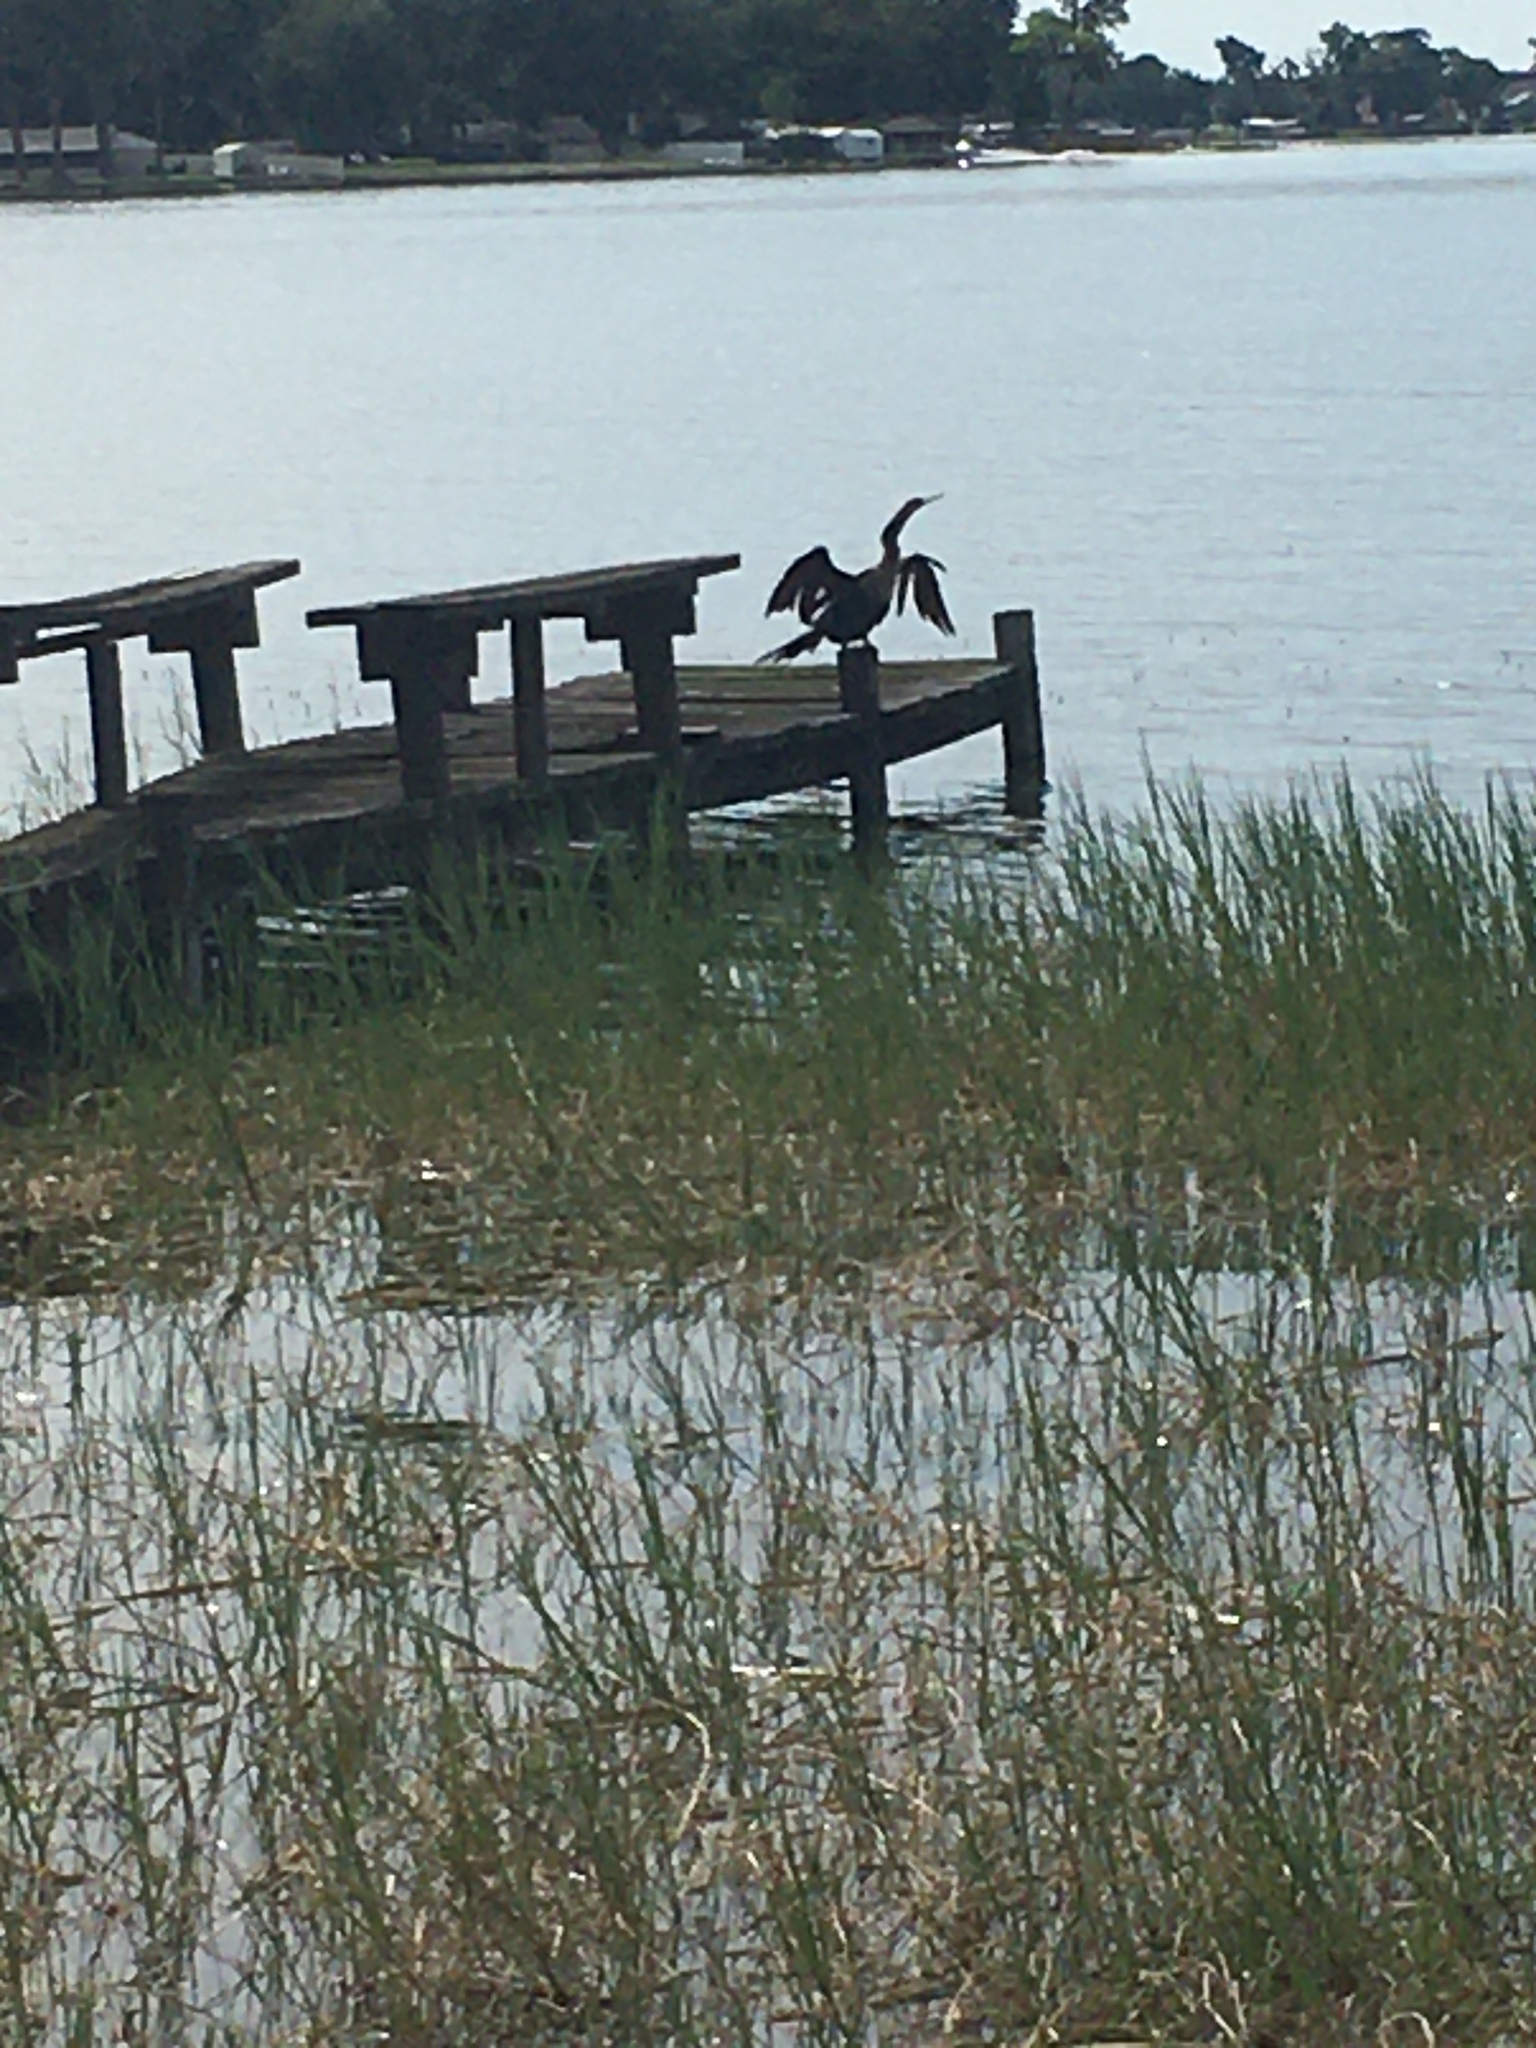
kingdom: Animalia
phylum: Chordata
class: Aves
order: Suliformes
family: Anhingidae
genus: Anhinga
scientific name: Anhinga anhinga
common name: Anhinga
